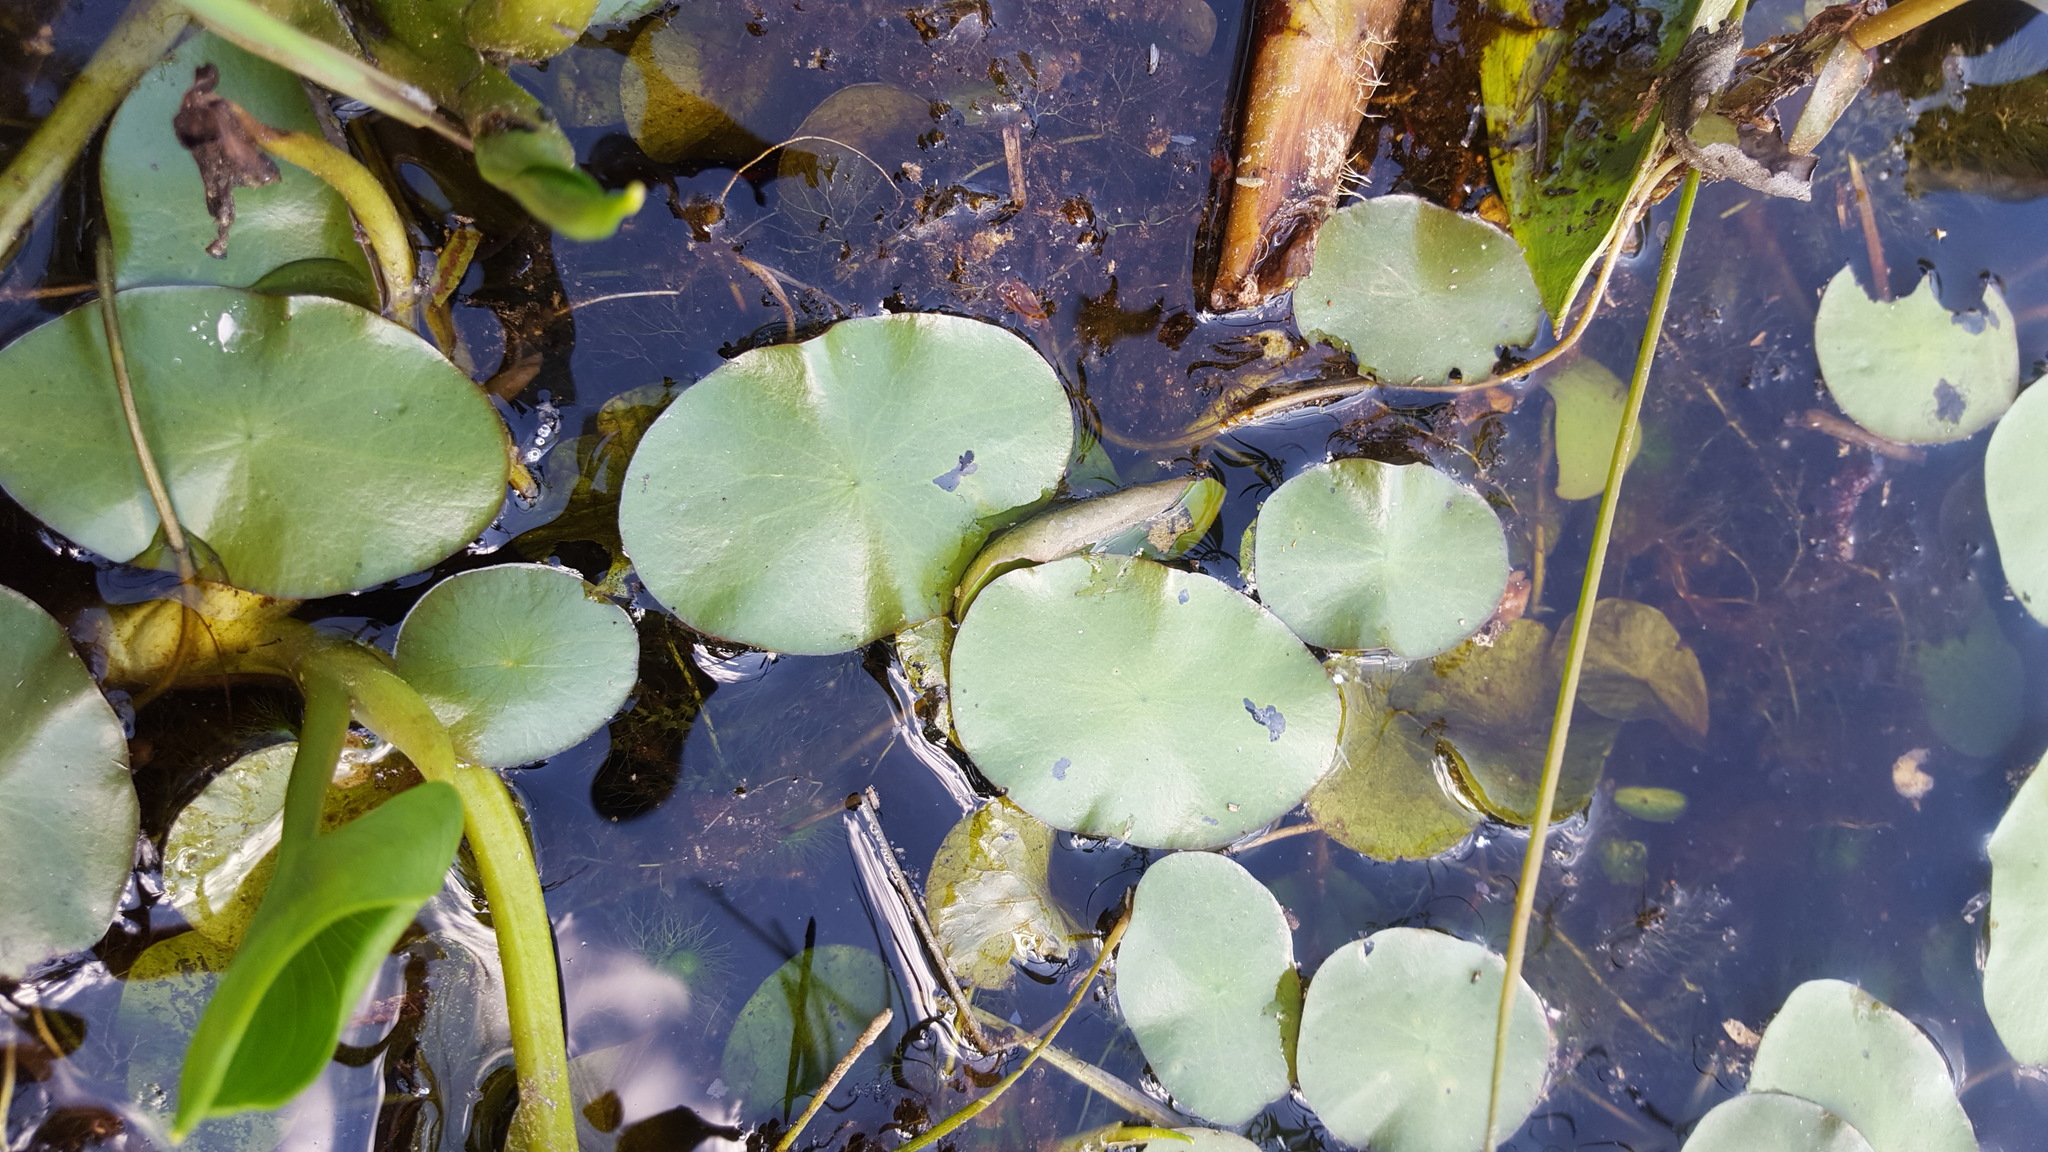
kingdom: Plantae
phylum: Tracheophyta
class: Magnoliopsida
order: Nymphaeales
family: Cabombaceae
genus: Brasenia
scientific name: Brasenia schreberi
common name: Water-shield
